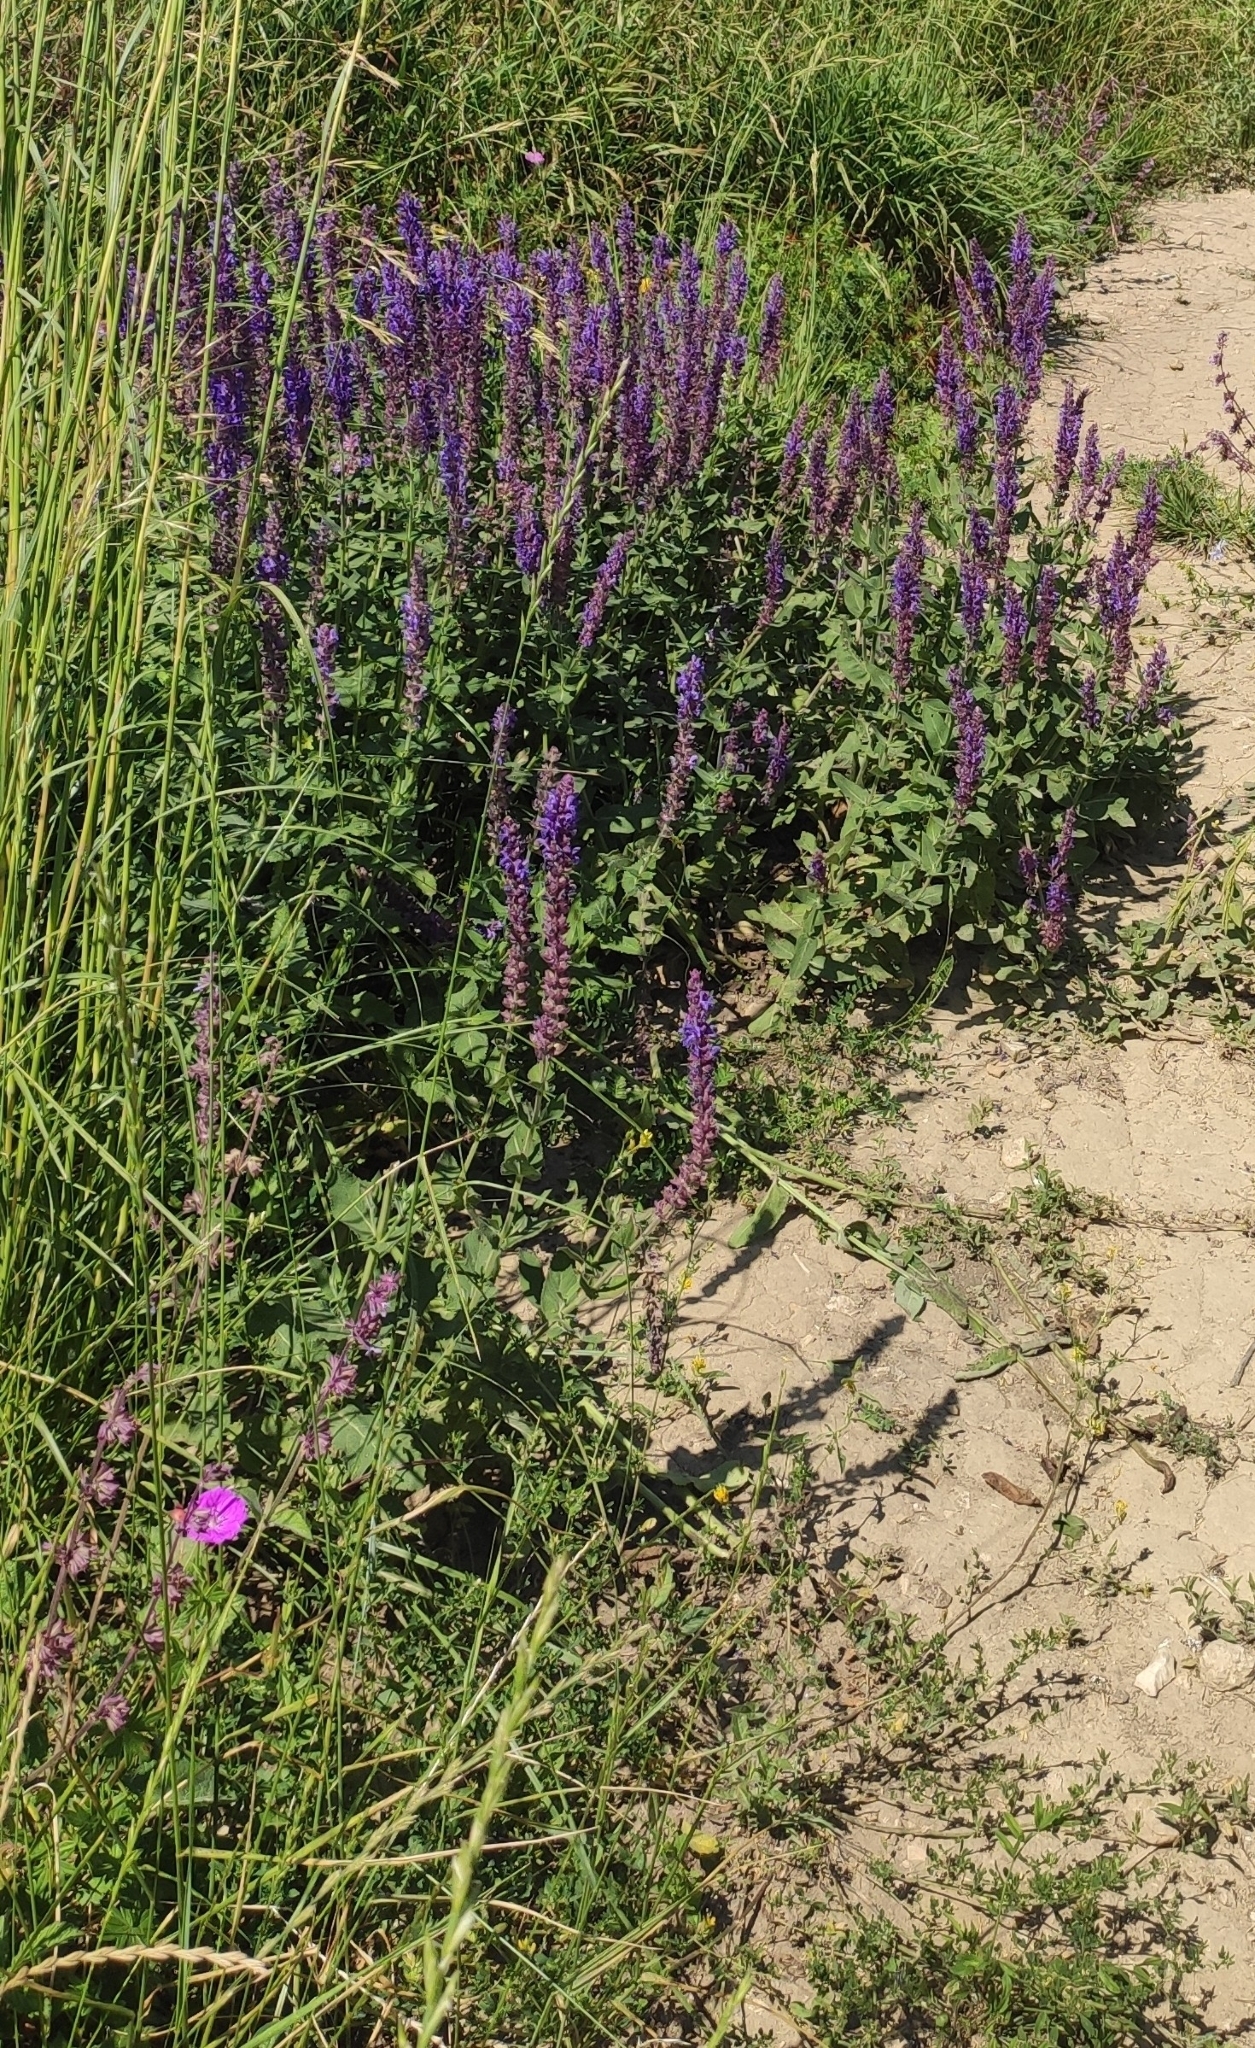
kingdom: Plantae
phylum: Tracheophyta
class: Magnoliopsida
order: Lamiales
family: Lamiaceae
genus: Salvia
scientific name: Salvia nemorosa
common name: Balkan clary
